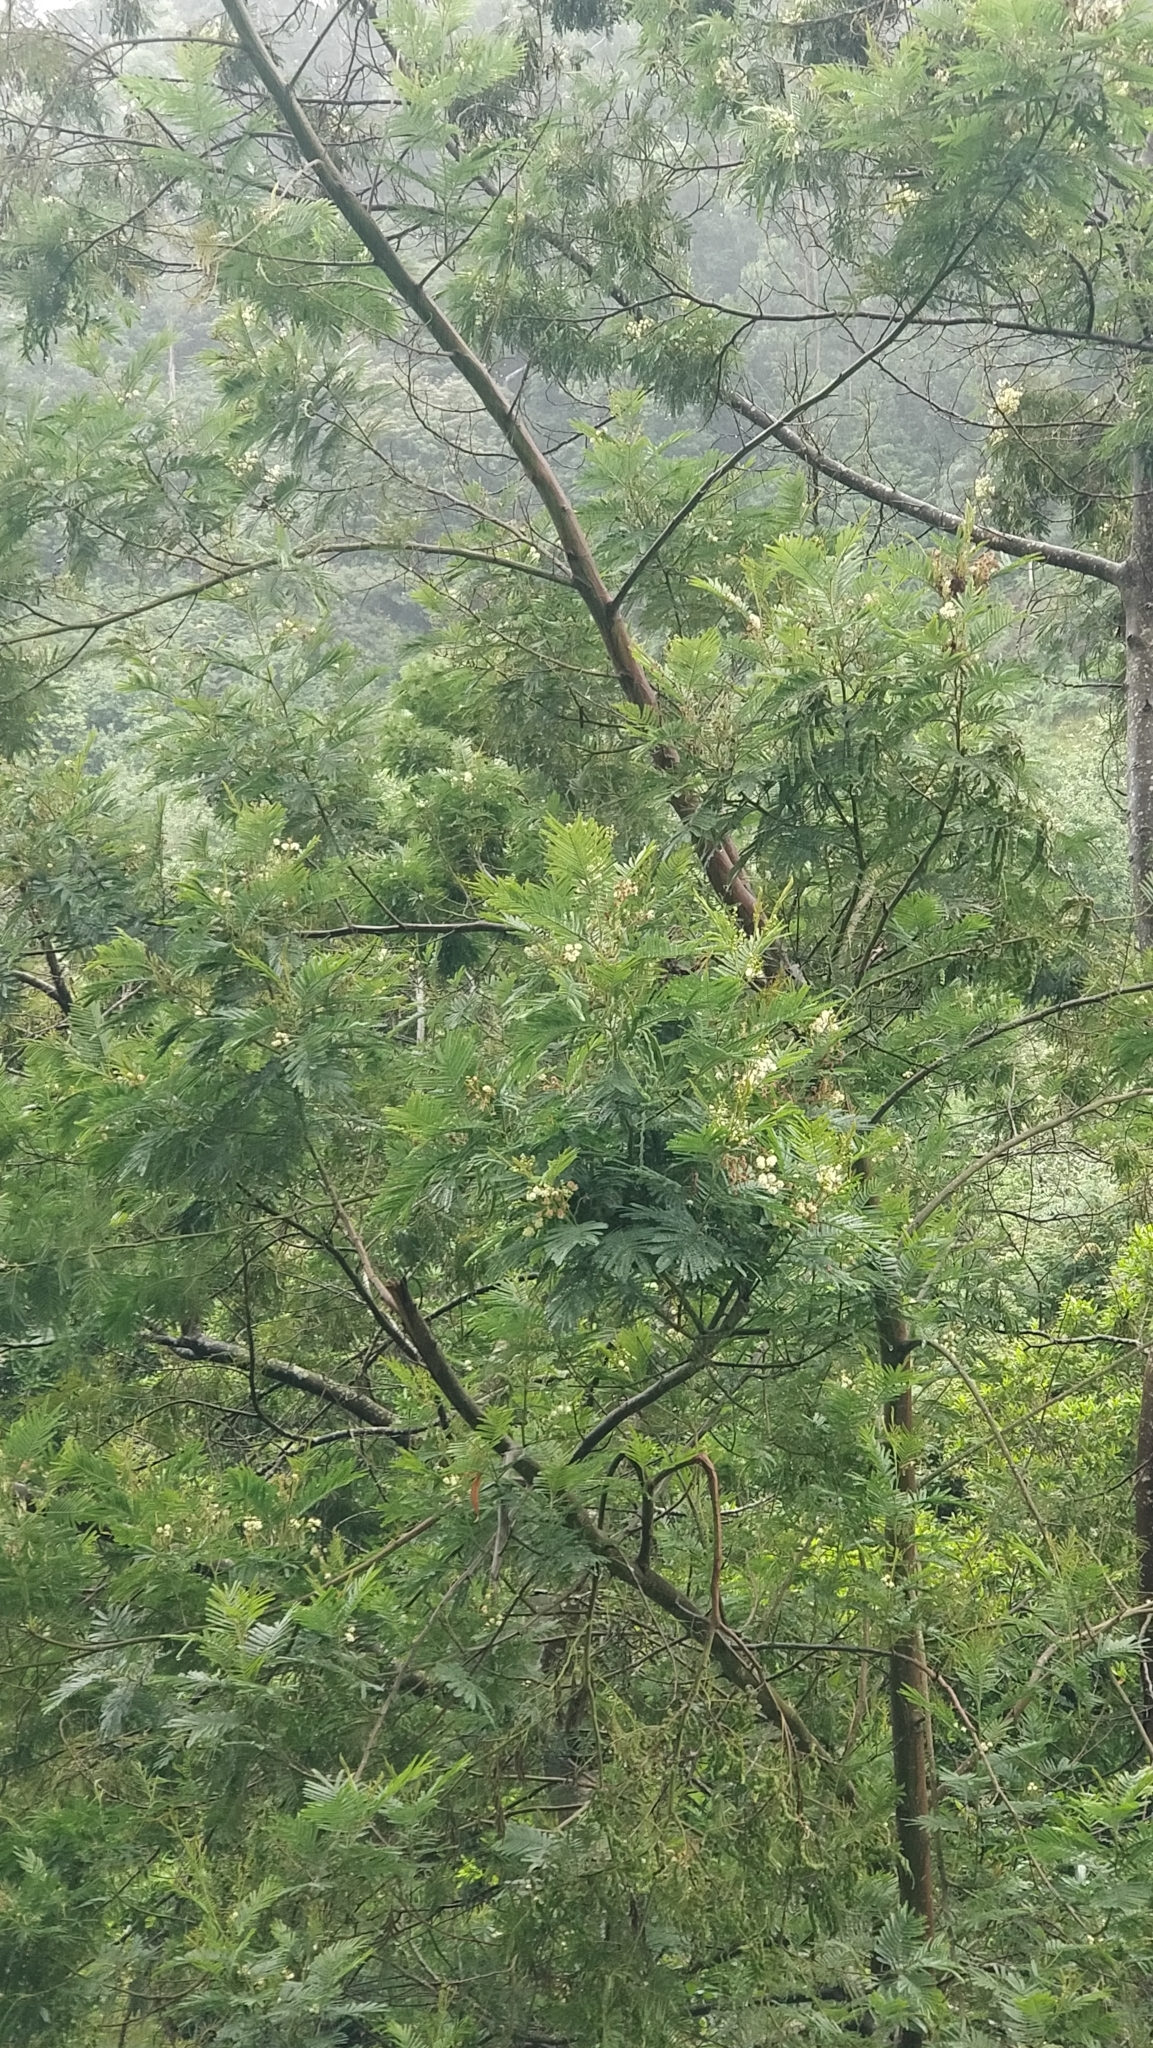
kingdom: Plantae
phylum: Tracheophyta
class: Magnoliopsida
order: Fabales
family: Fabaceae
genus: Acacia
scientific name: Acacia mearnsii
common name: Black wattle
